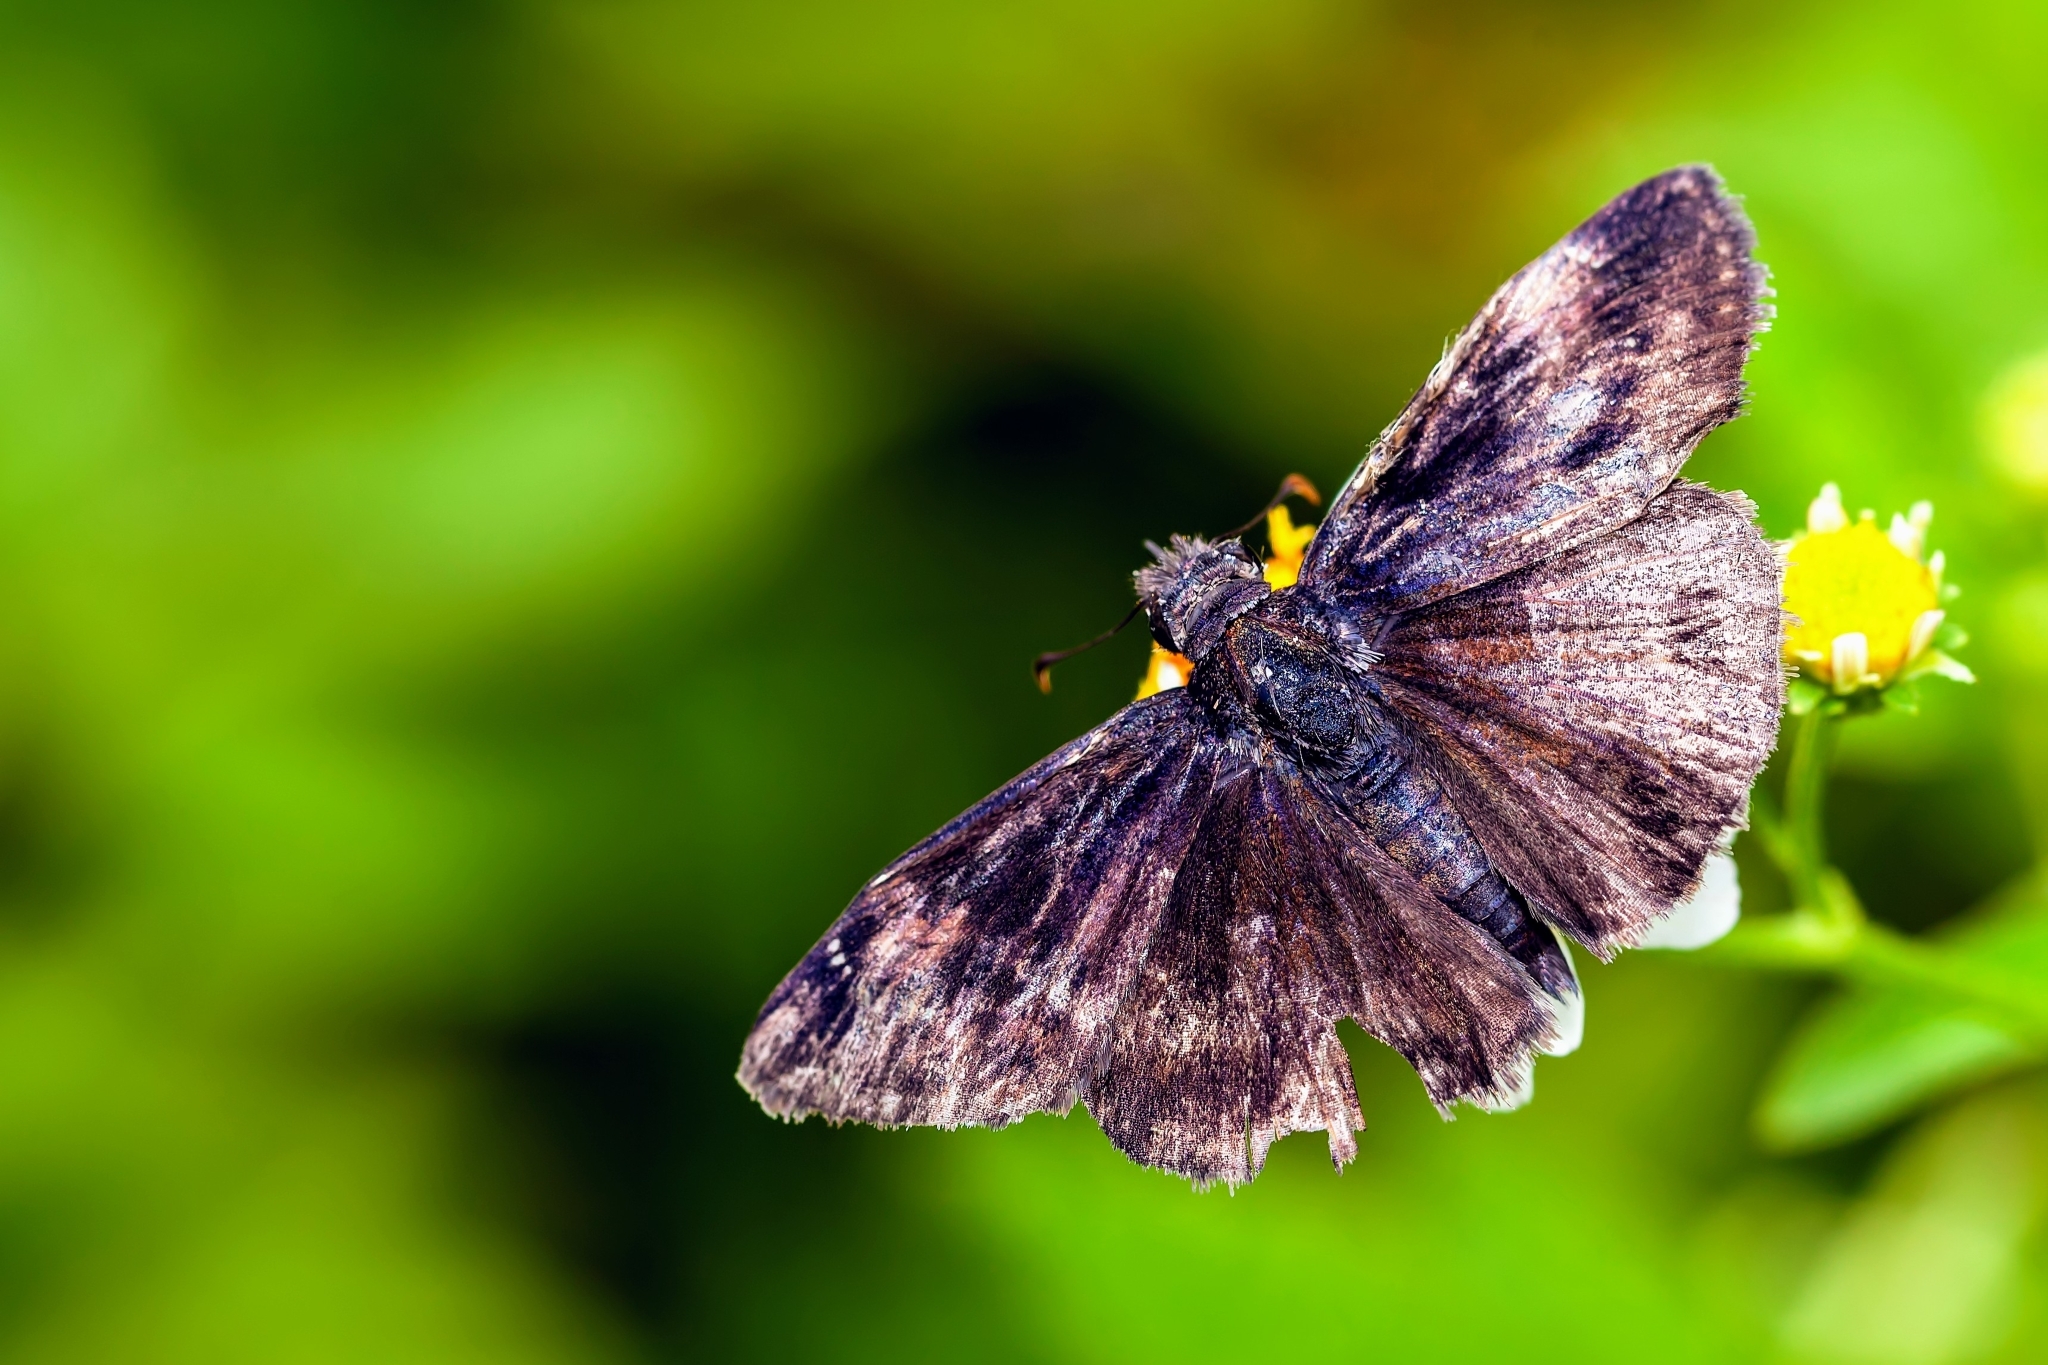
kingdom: Animalia
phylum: Arthropoda
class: Insecta
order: Lepidoptera
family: Hesperiidae
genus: Erynnis
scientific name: Erynnis zarucco
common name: Zarucco duskywing
